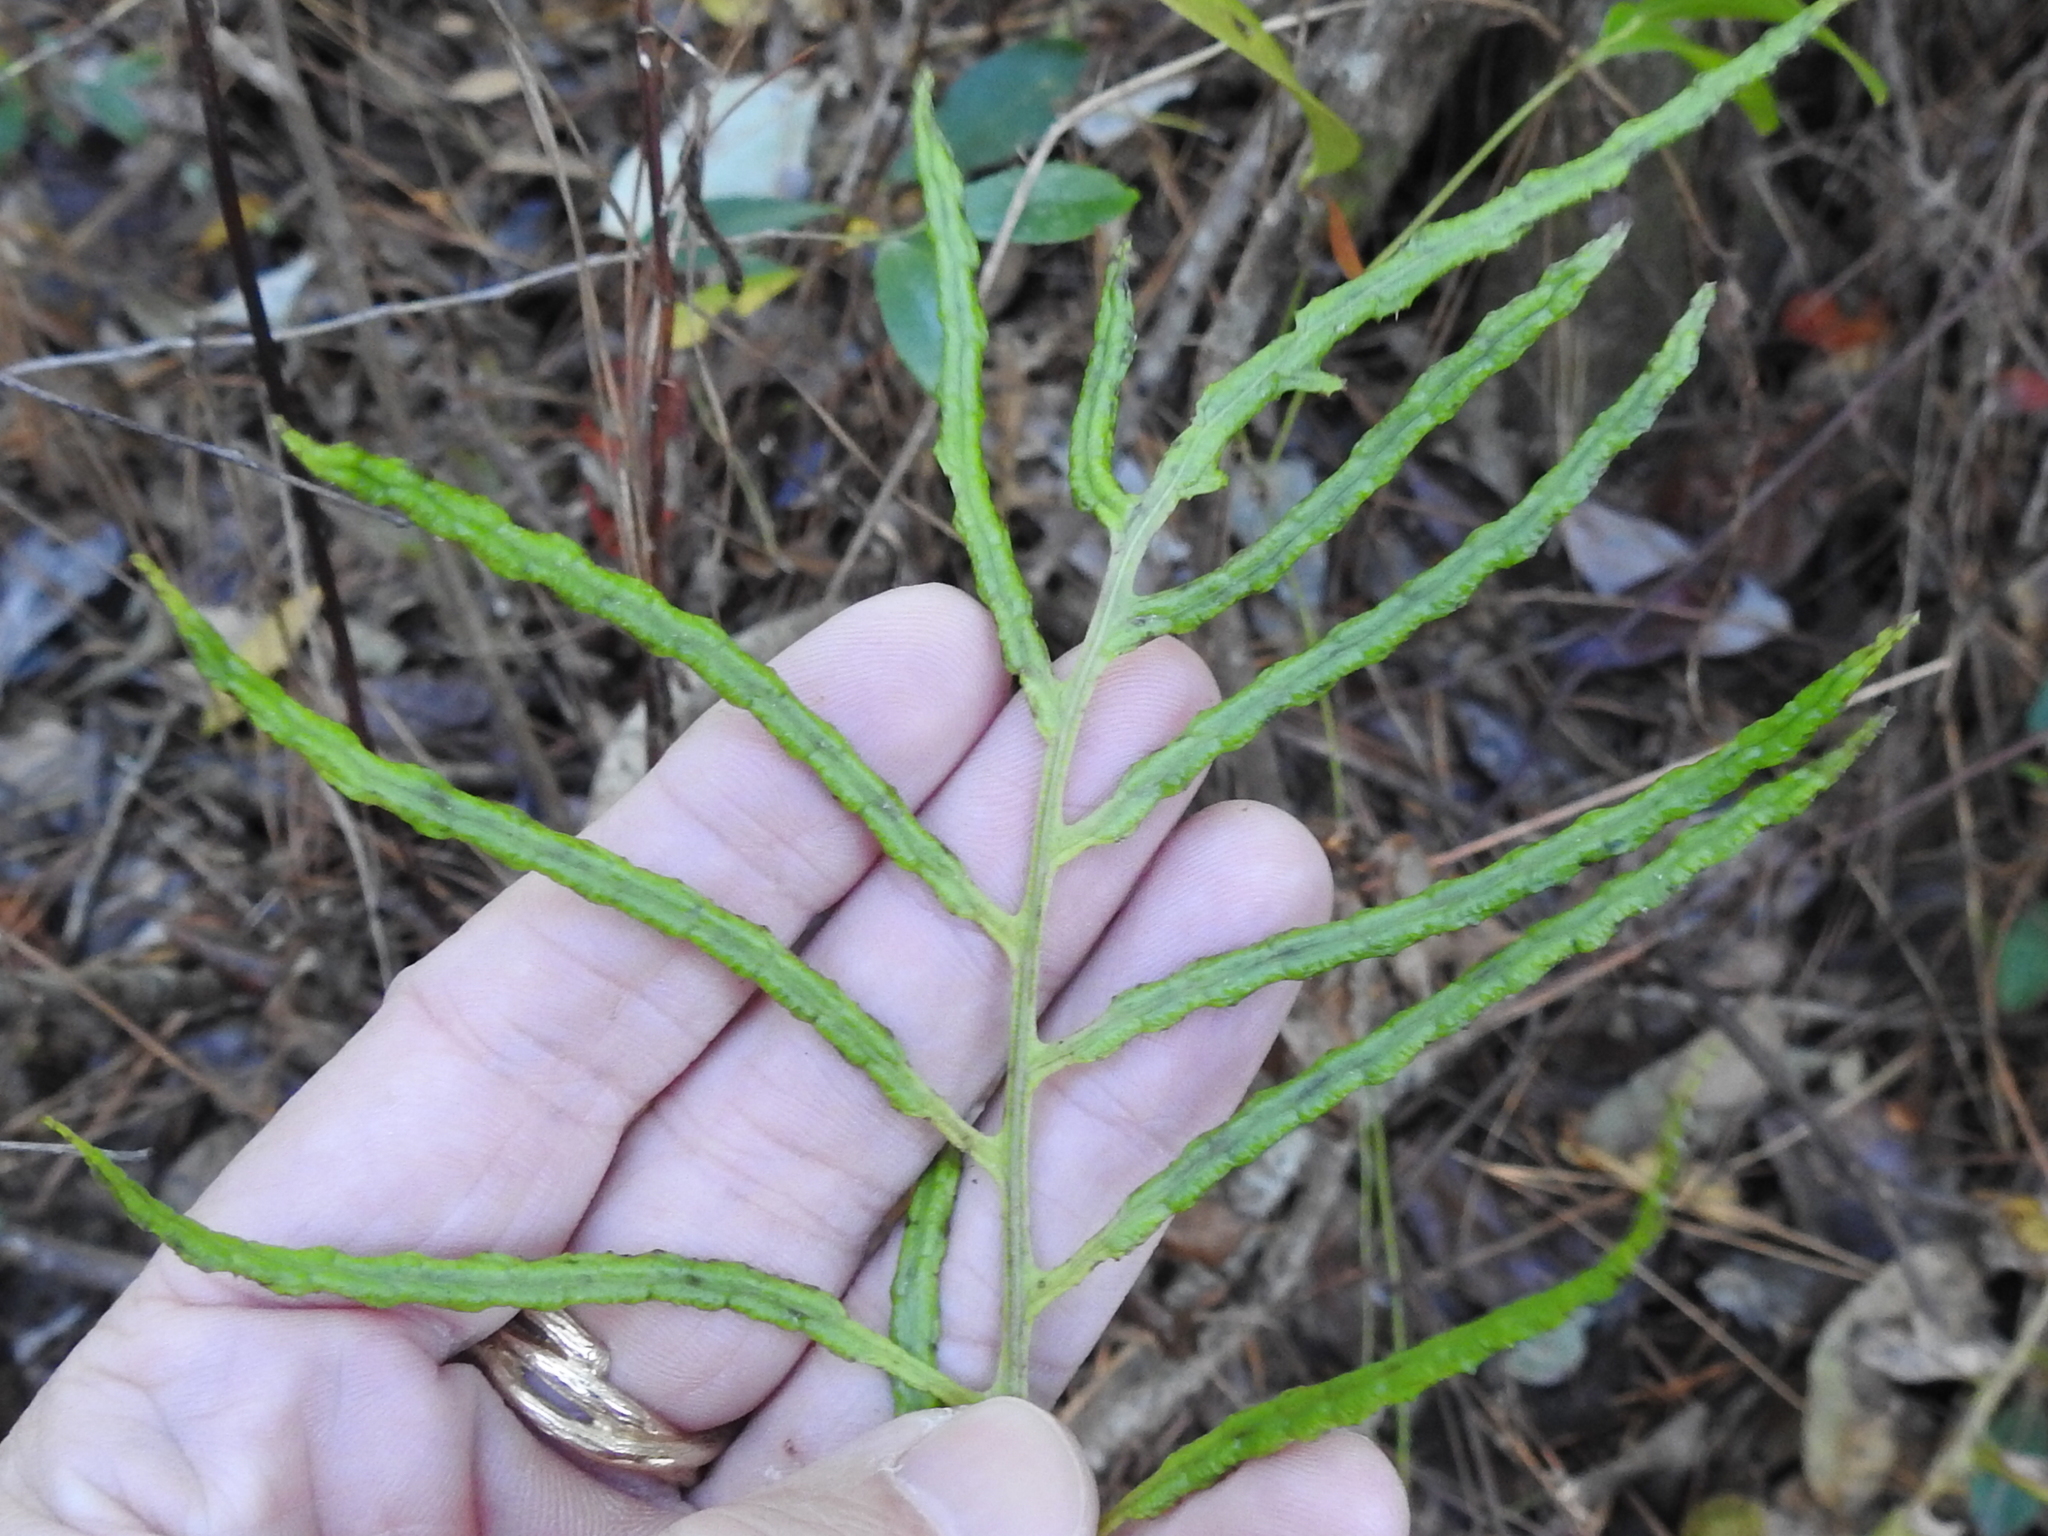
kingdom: Plantae
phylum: Tracheophyta
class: Polypodiopsida
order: Polypodiales
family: Blechnaceae
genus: Lorinseria
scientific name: Lorinseria areolata
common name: Dwarf chain fern
